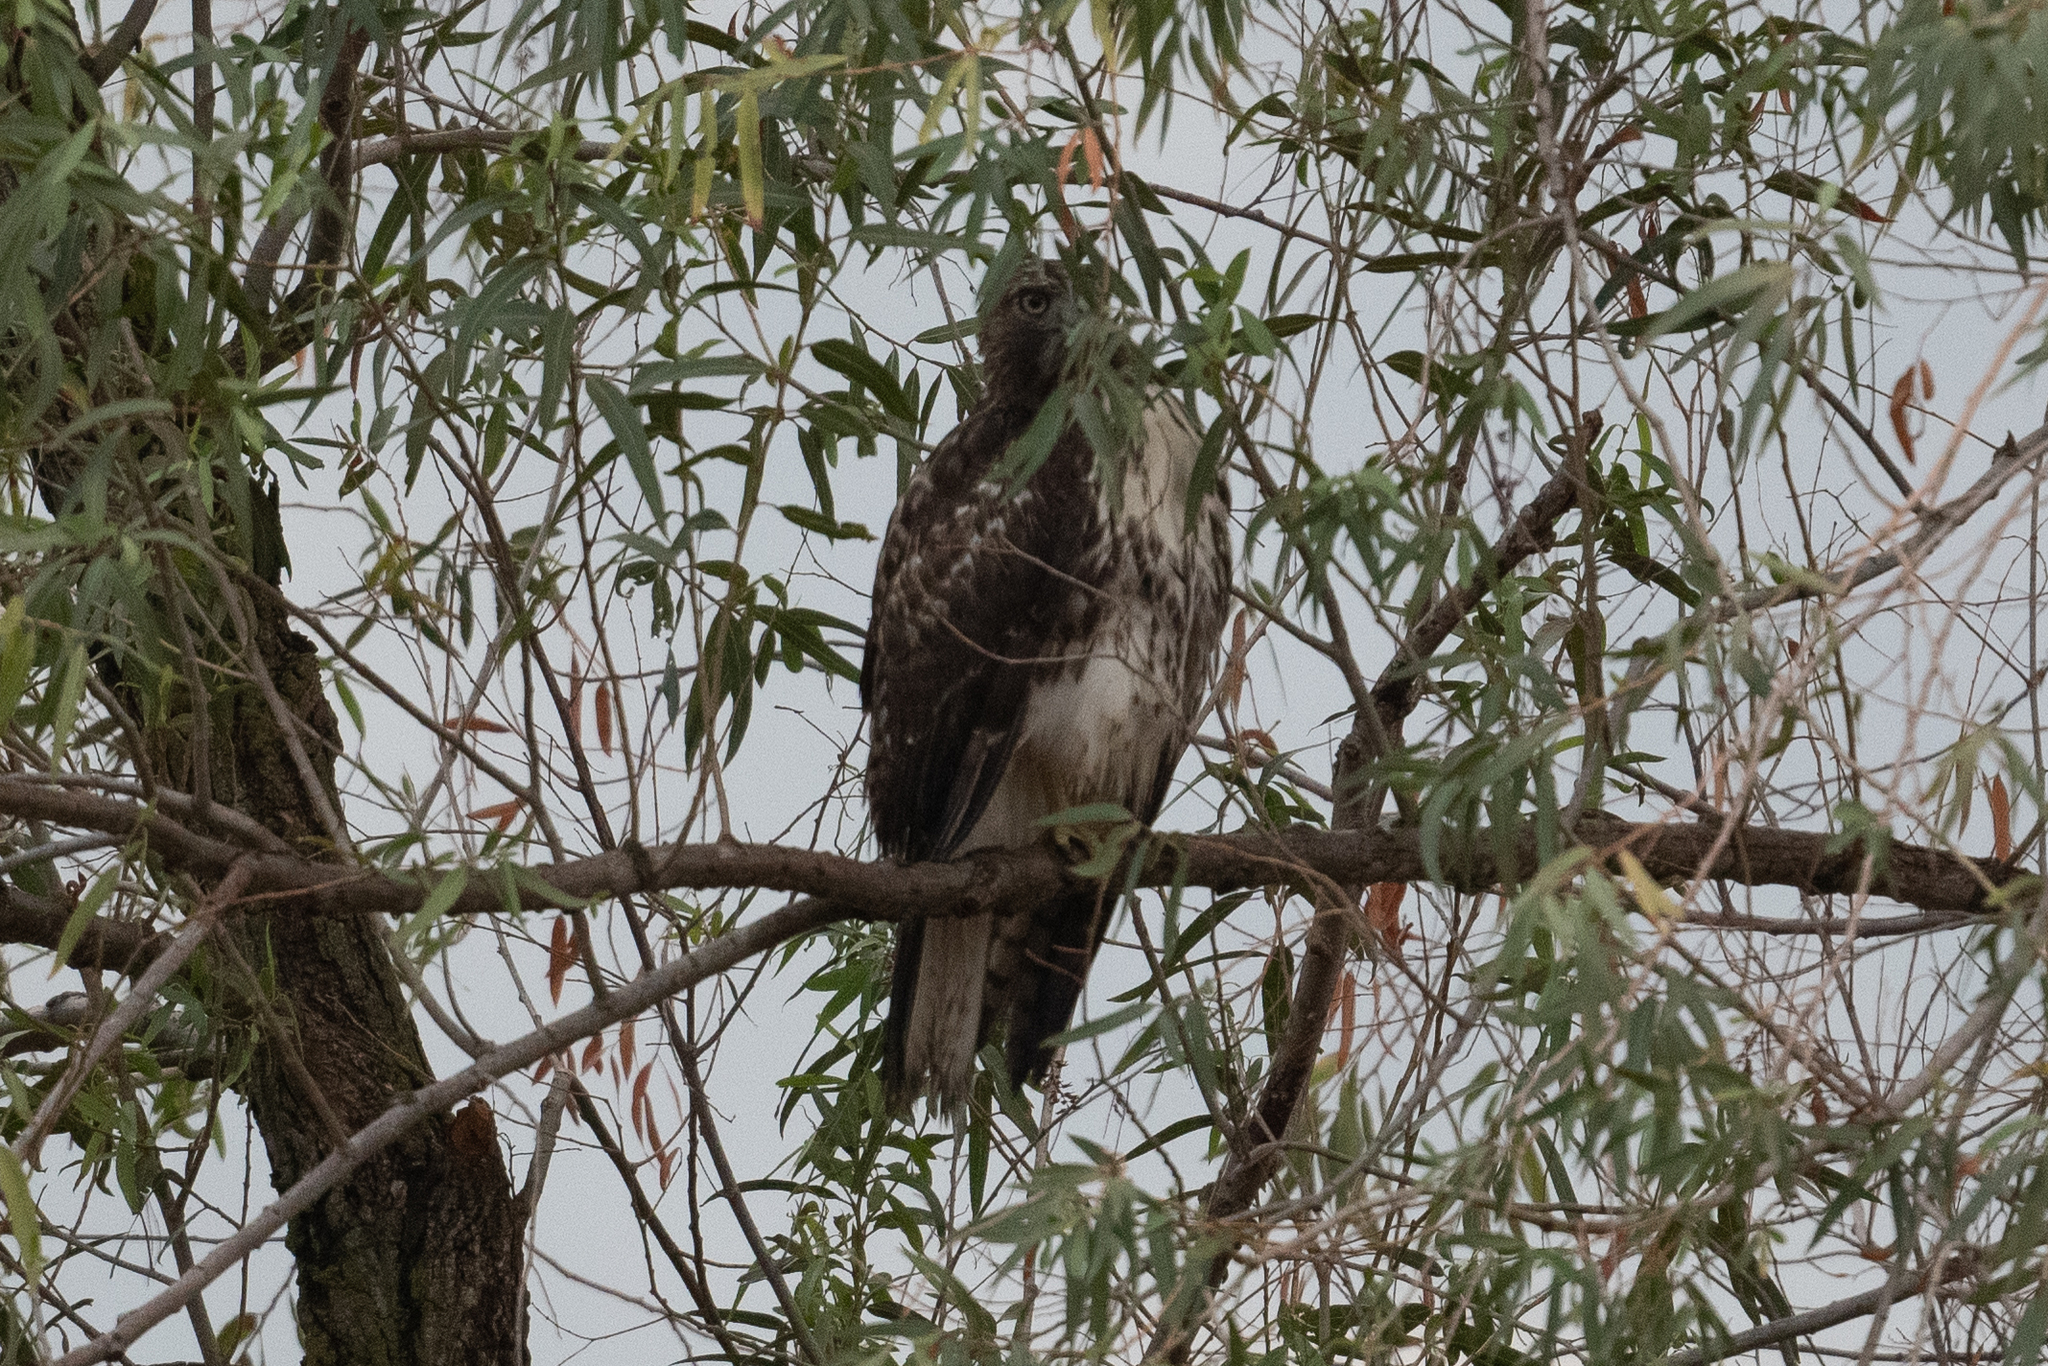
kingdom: Animalia
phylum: Chordata
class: Aves
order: Accipitriformes
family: Accipitridae
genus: Buteo
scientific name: Buteo jamaicensis
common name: Red-tailed hawk
